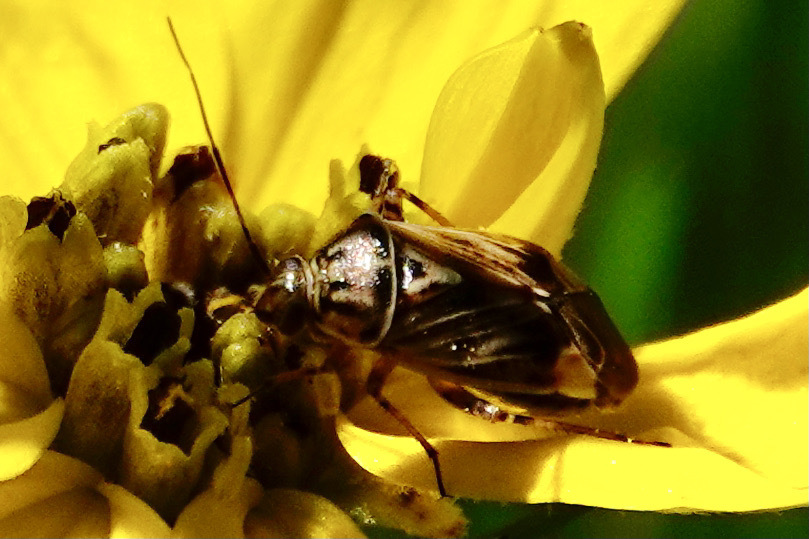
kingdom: Animalia
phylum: Arthropoda
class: Insecta
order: Hemiptera
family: Miridae
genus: Lygus
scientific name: Lygus lineolaris
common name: North american tarnished plant bug
